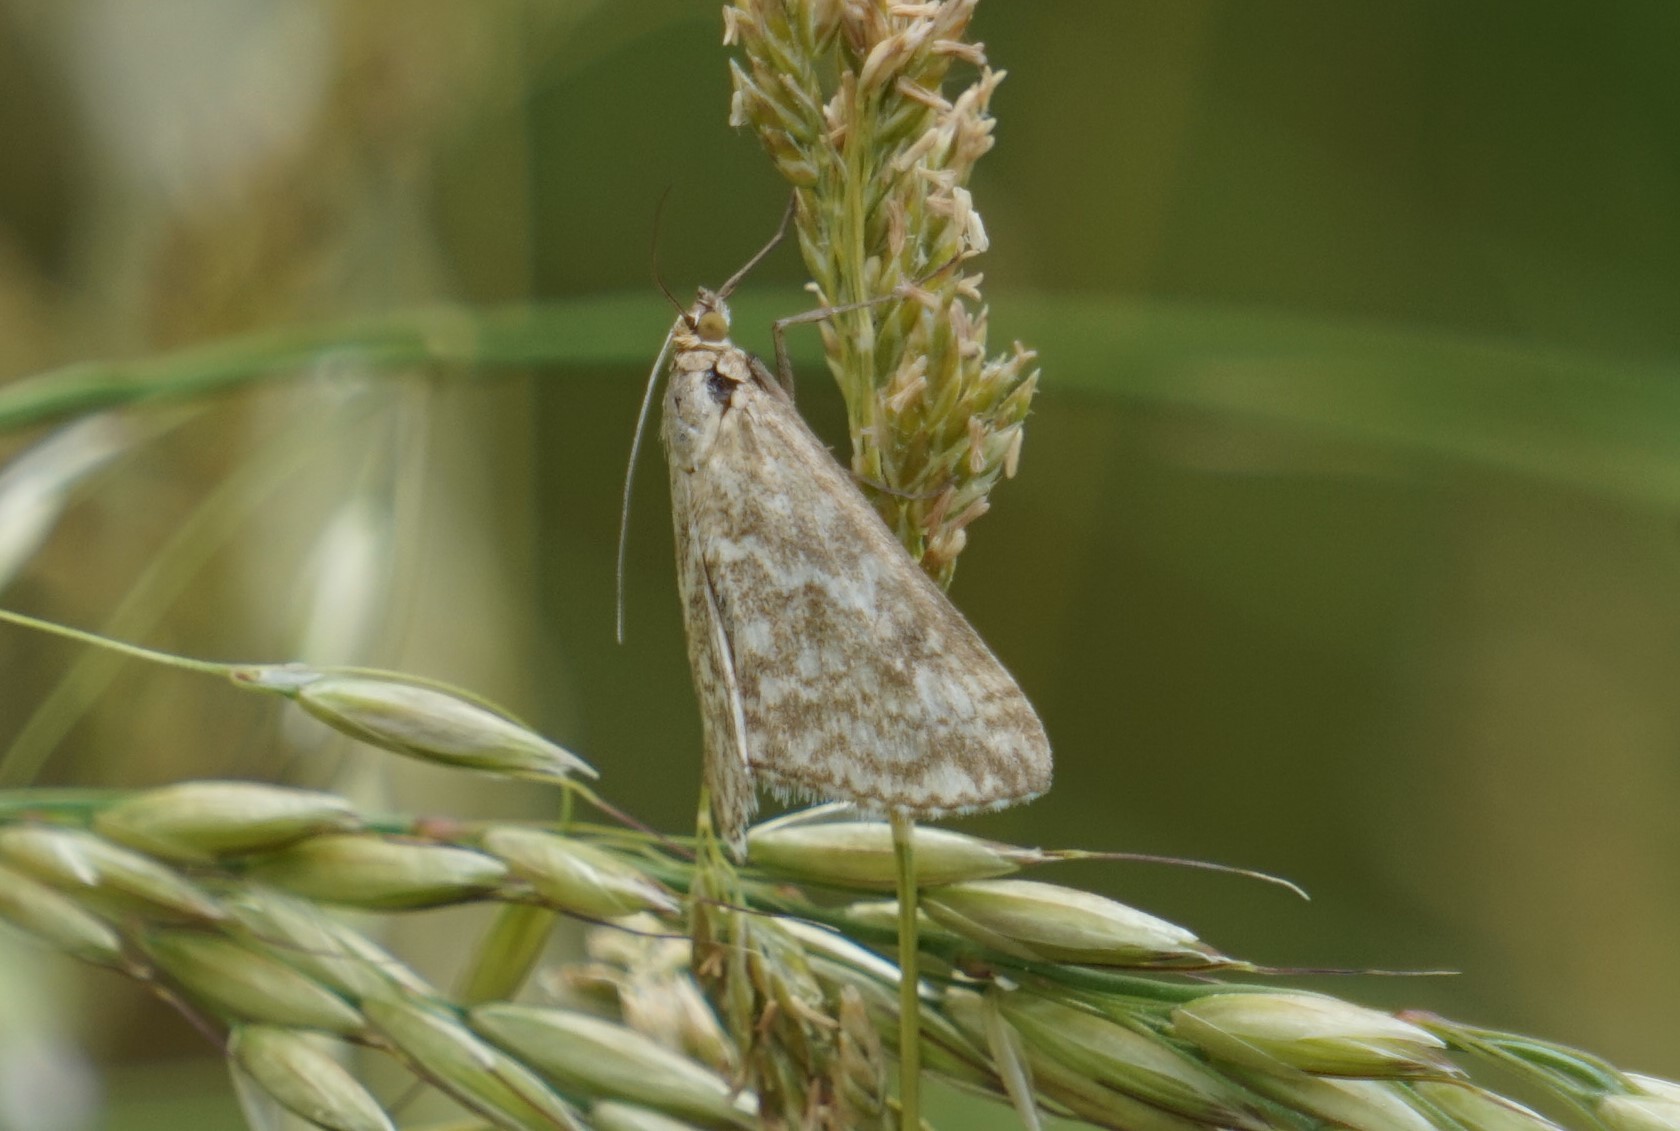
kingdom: Animalia
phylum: Arthropoda
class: Insecta
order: Lepidoptera
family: Crambidae
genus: Evergestis
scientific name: Evergestis frumentalis
